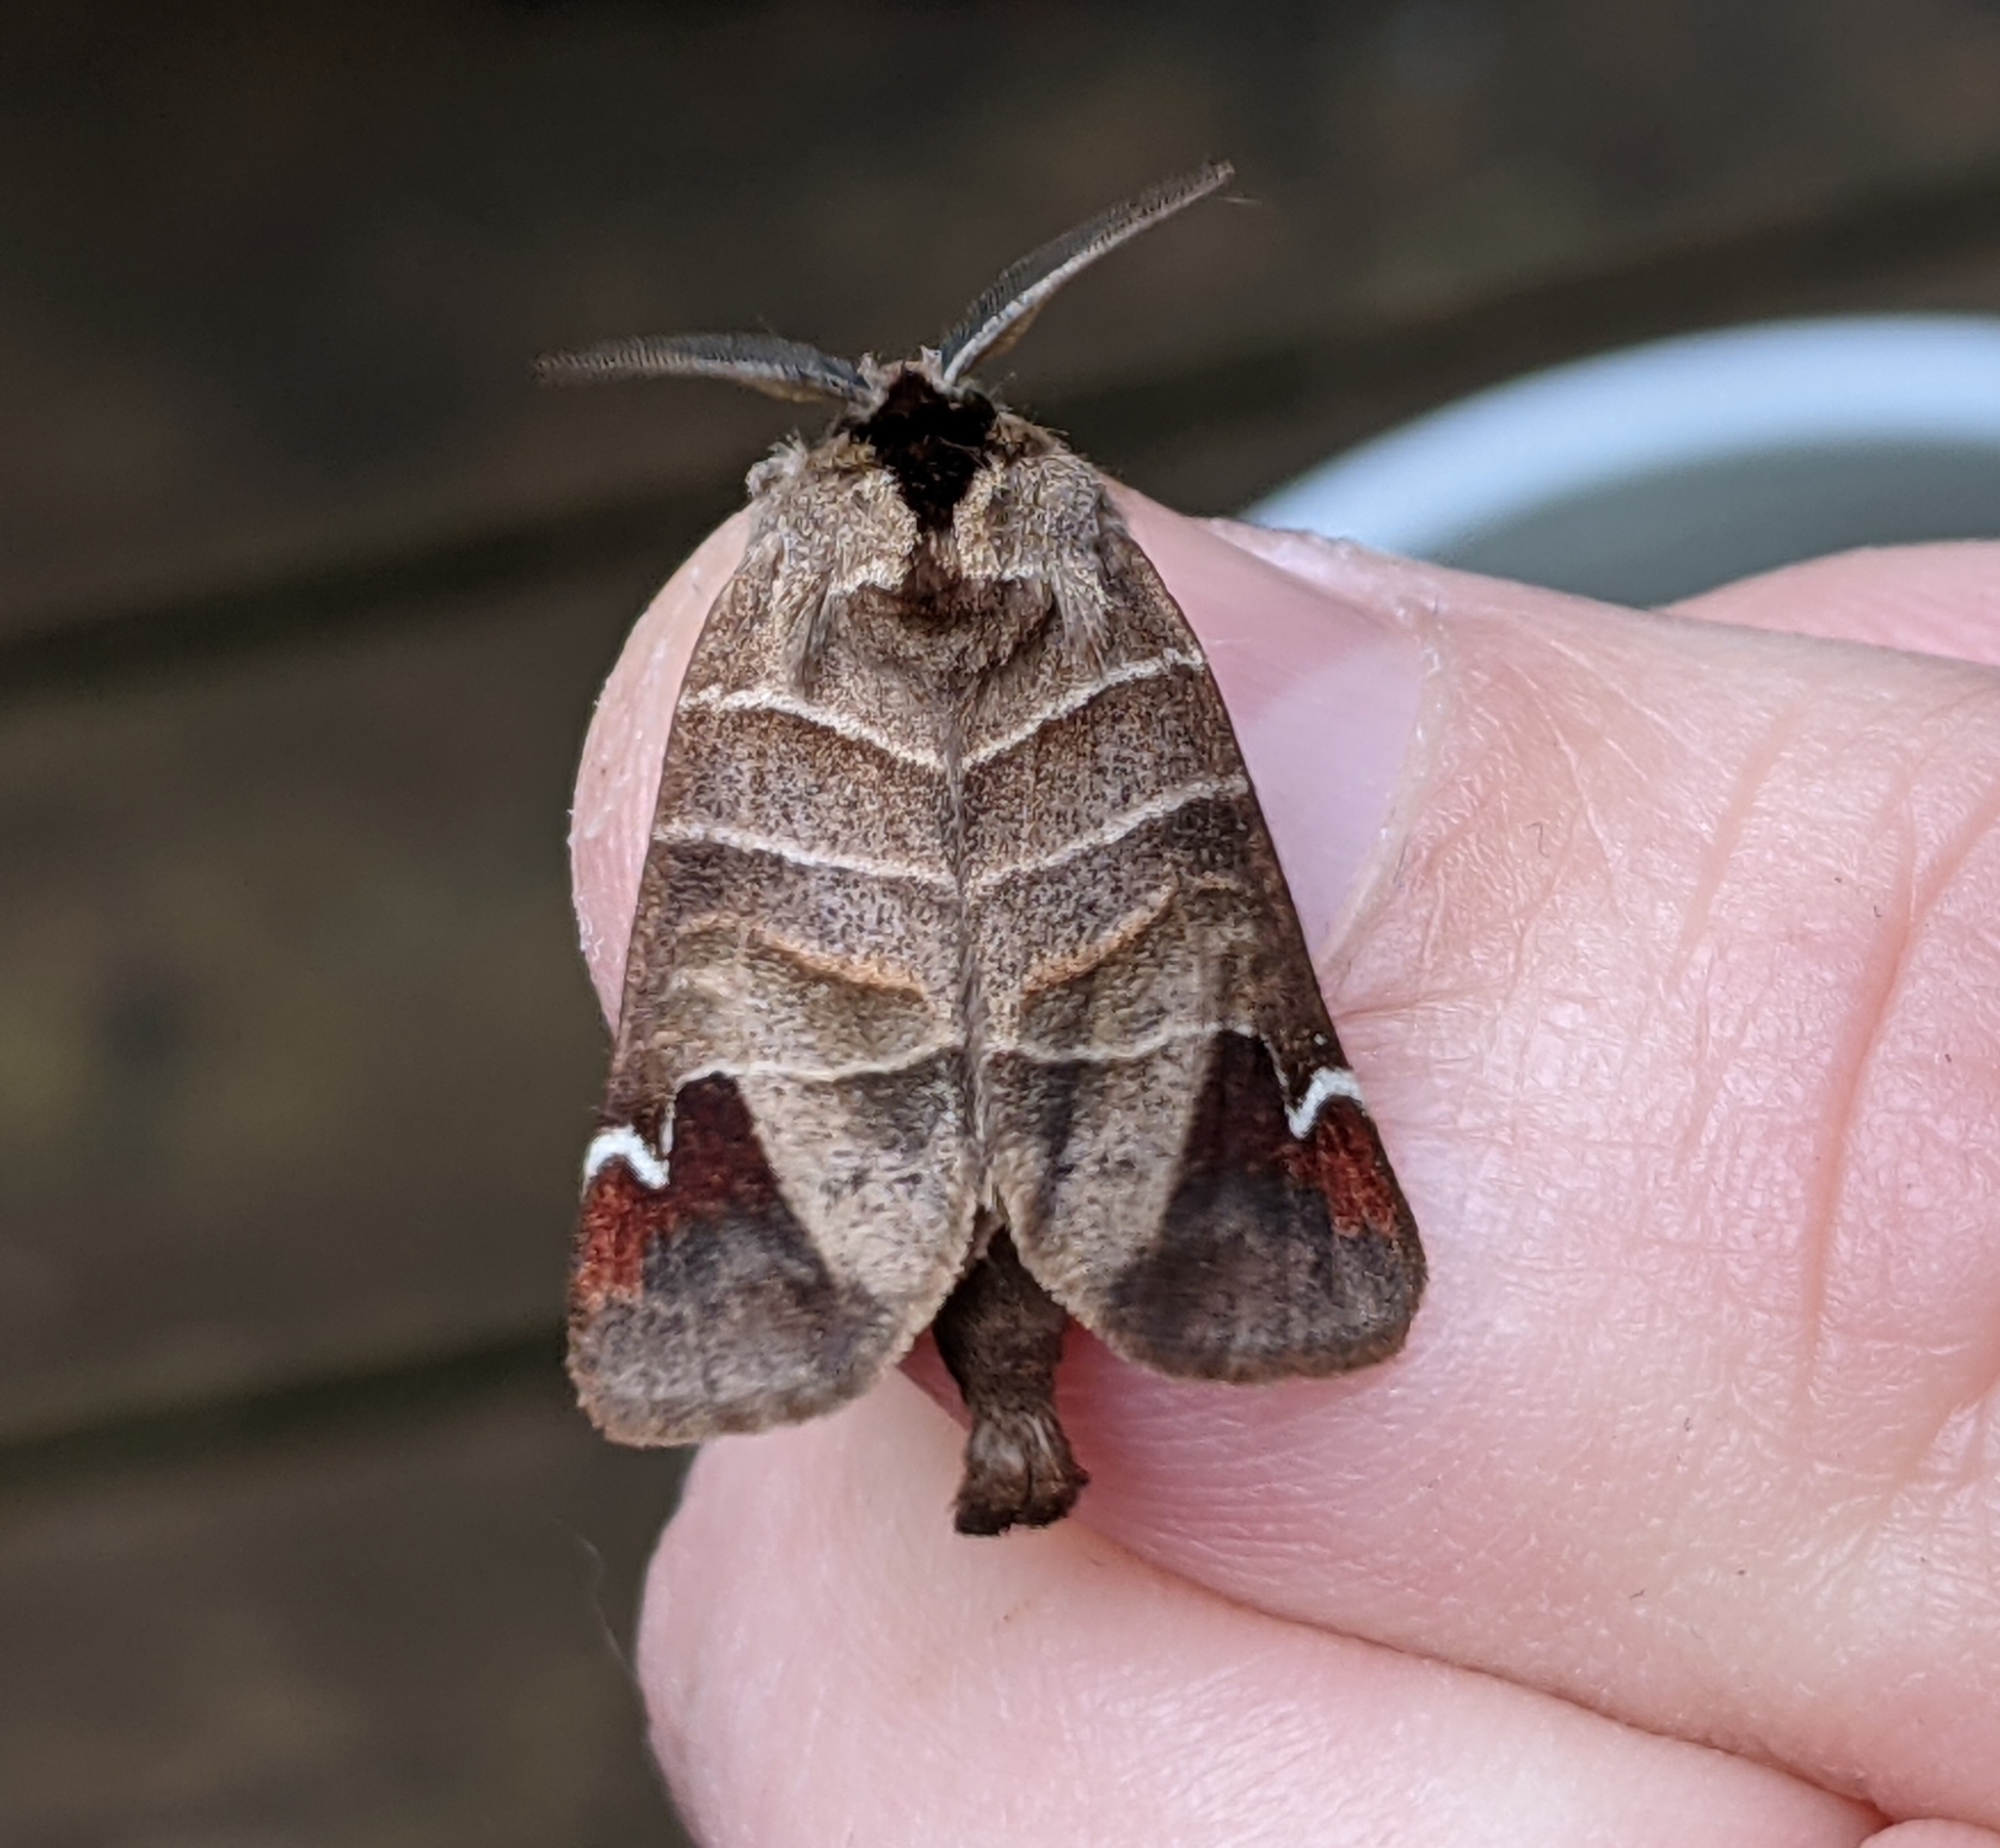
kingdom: Animalia
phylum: Arthropoda
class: Insecta
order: Lepidoptera
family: Notodontidae
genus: Clostera
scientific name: Clostera albosigma
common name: Sigmoid prominent
